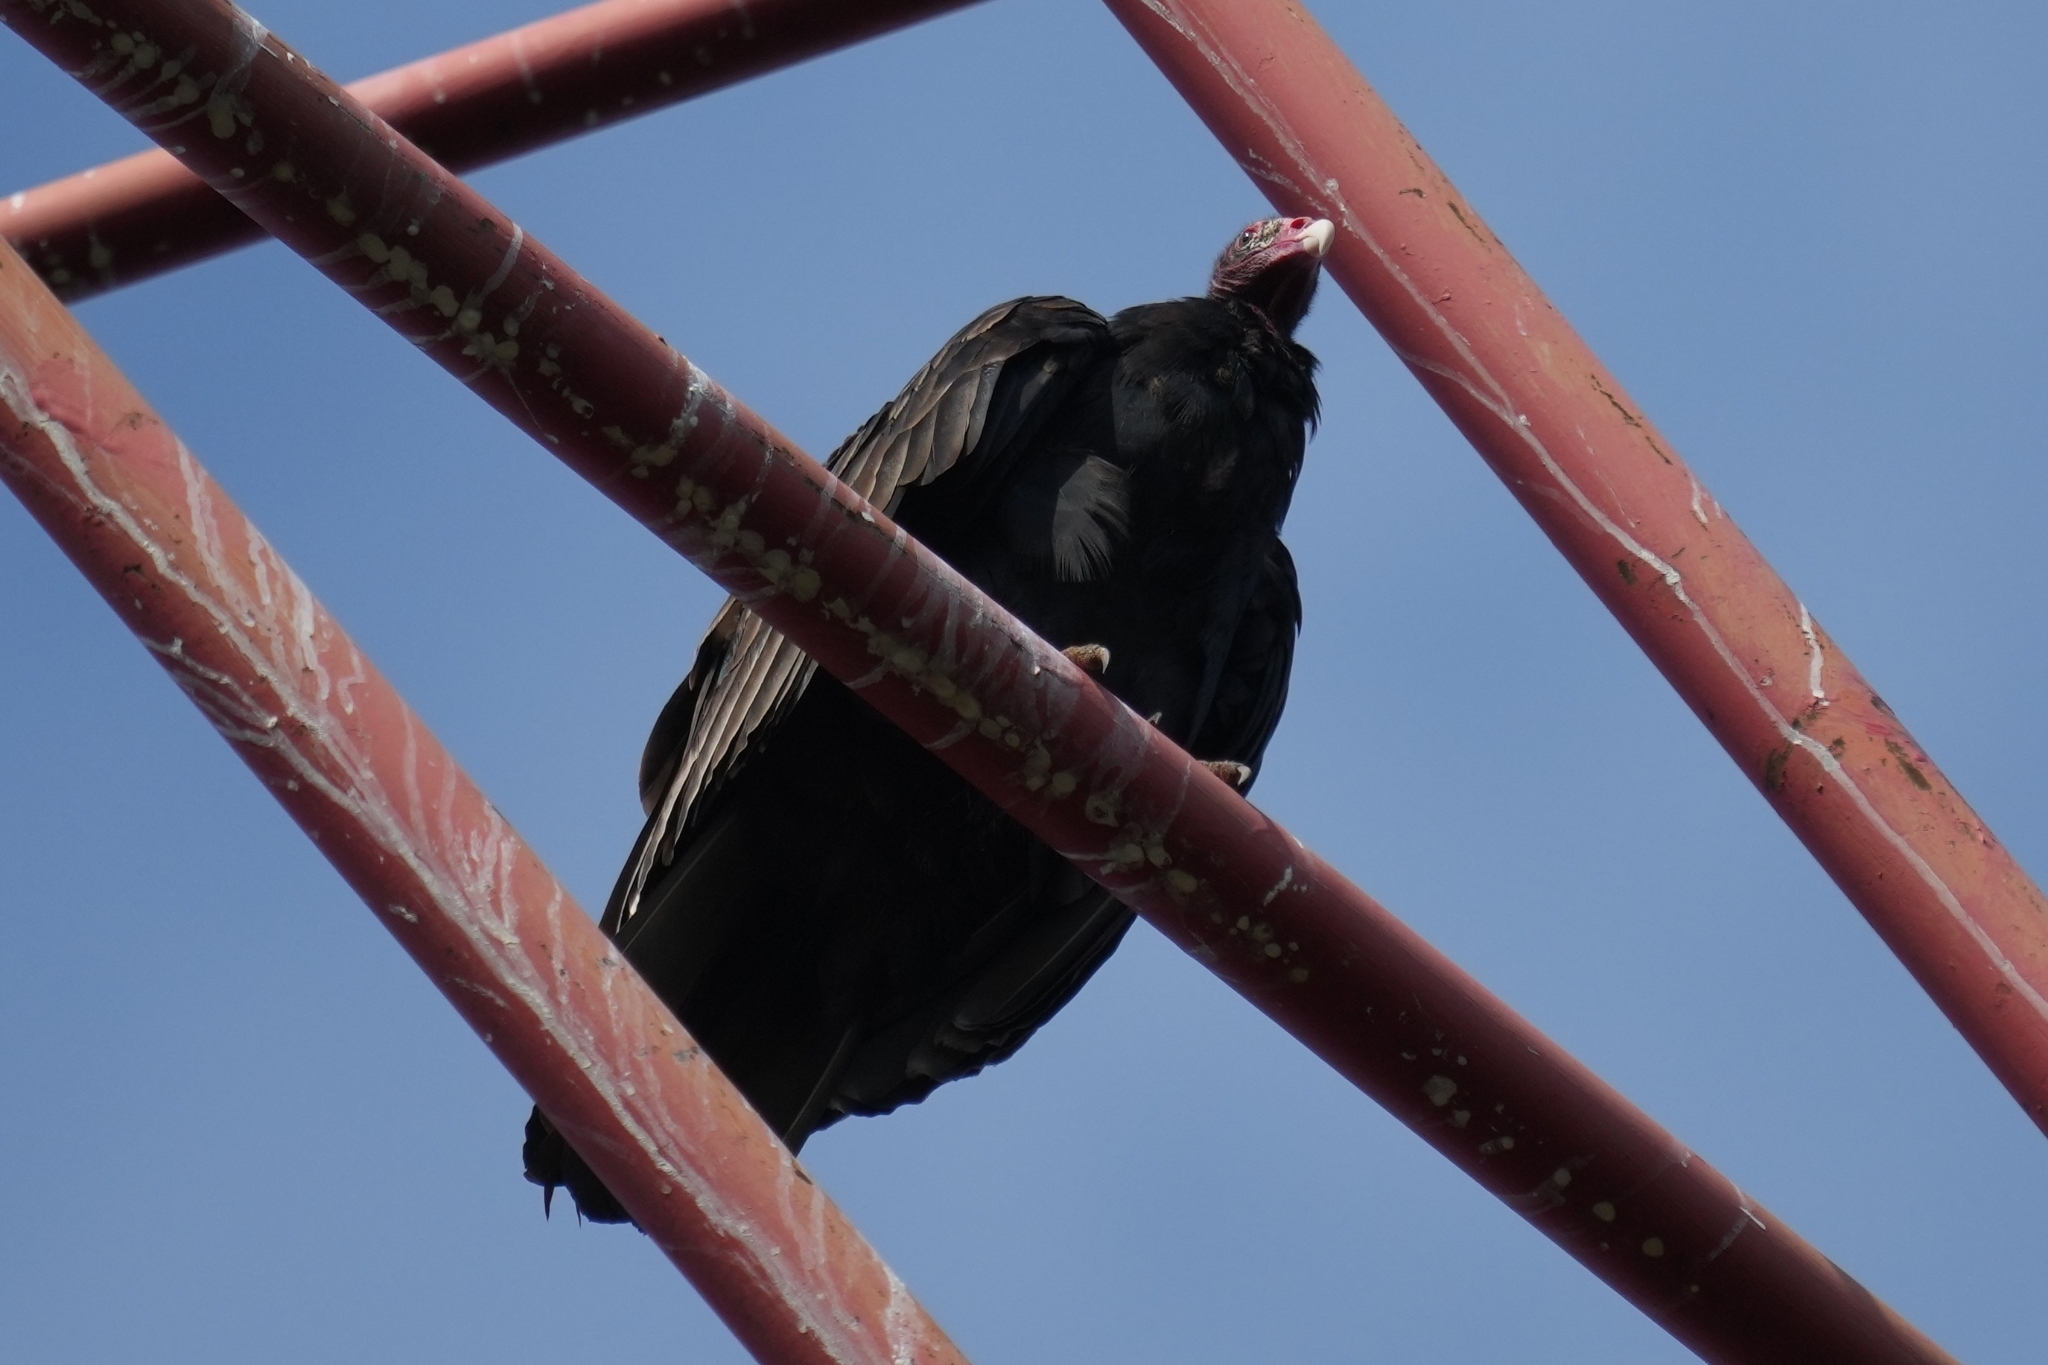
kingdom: Animalia
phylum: Chordata
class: Aves
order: Accipitriformes
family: Cathartidae
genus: Cathartes
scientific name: Cathartes aura
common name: Turkey vulture
